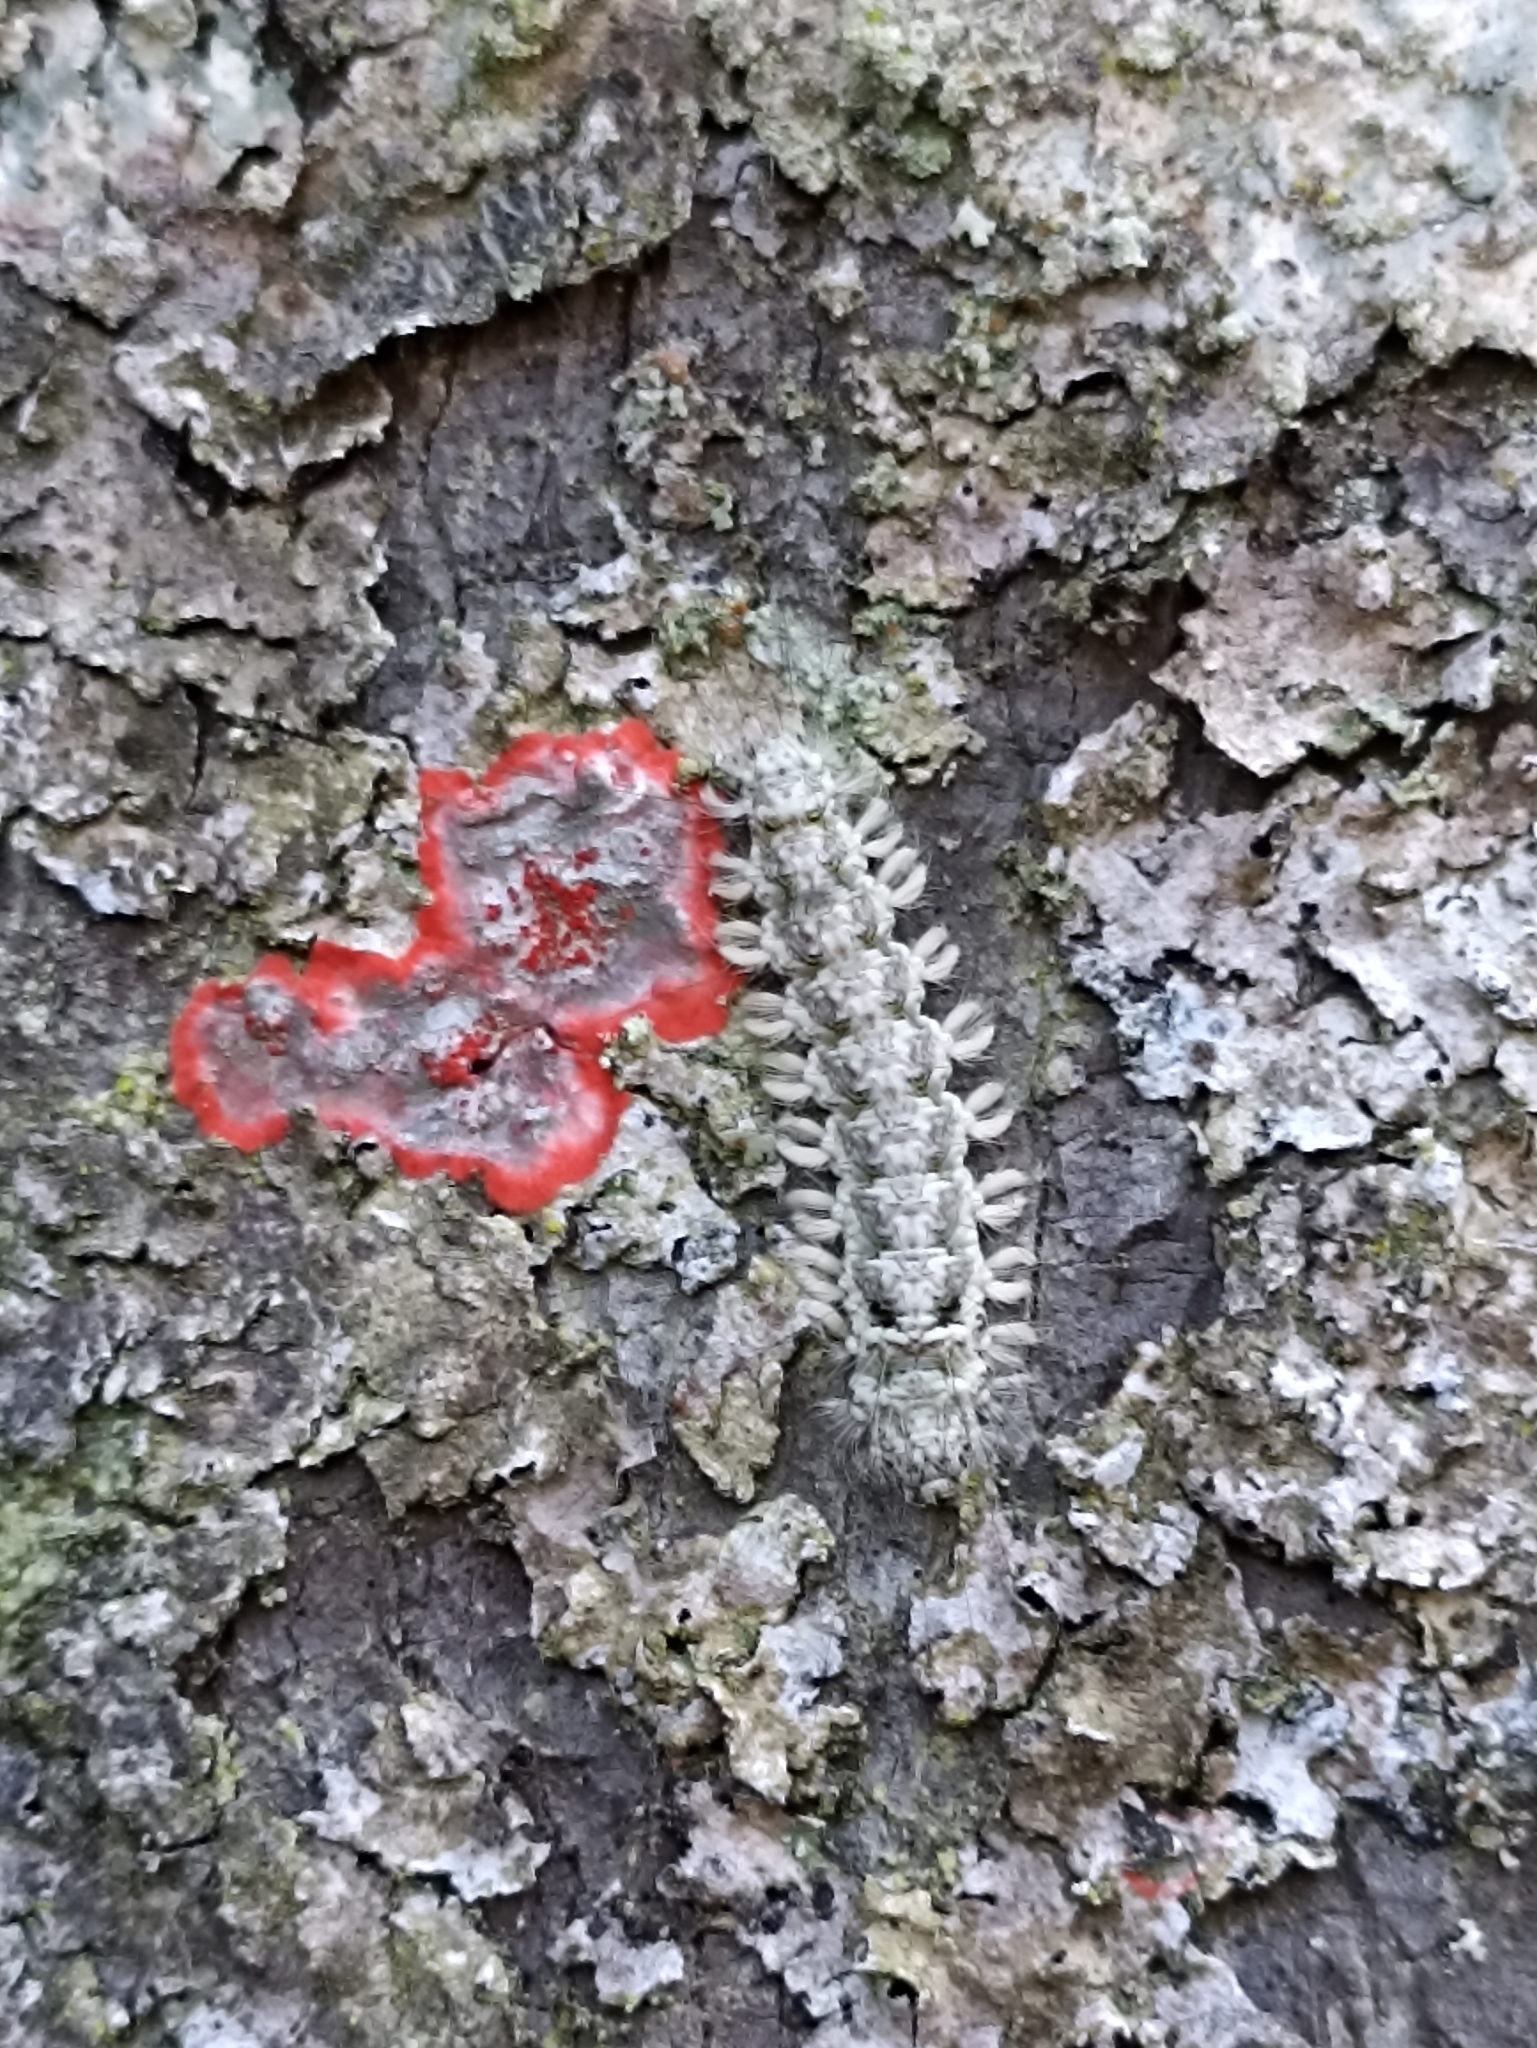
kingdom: Fungi
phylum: Ascomycota
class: Arthoniomycetes
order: Arthoniales
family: Arthoniaceae
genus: Herpothallon
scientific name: Herpothallon rubrocinctum
